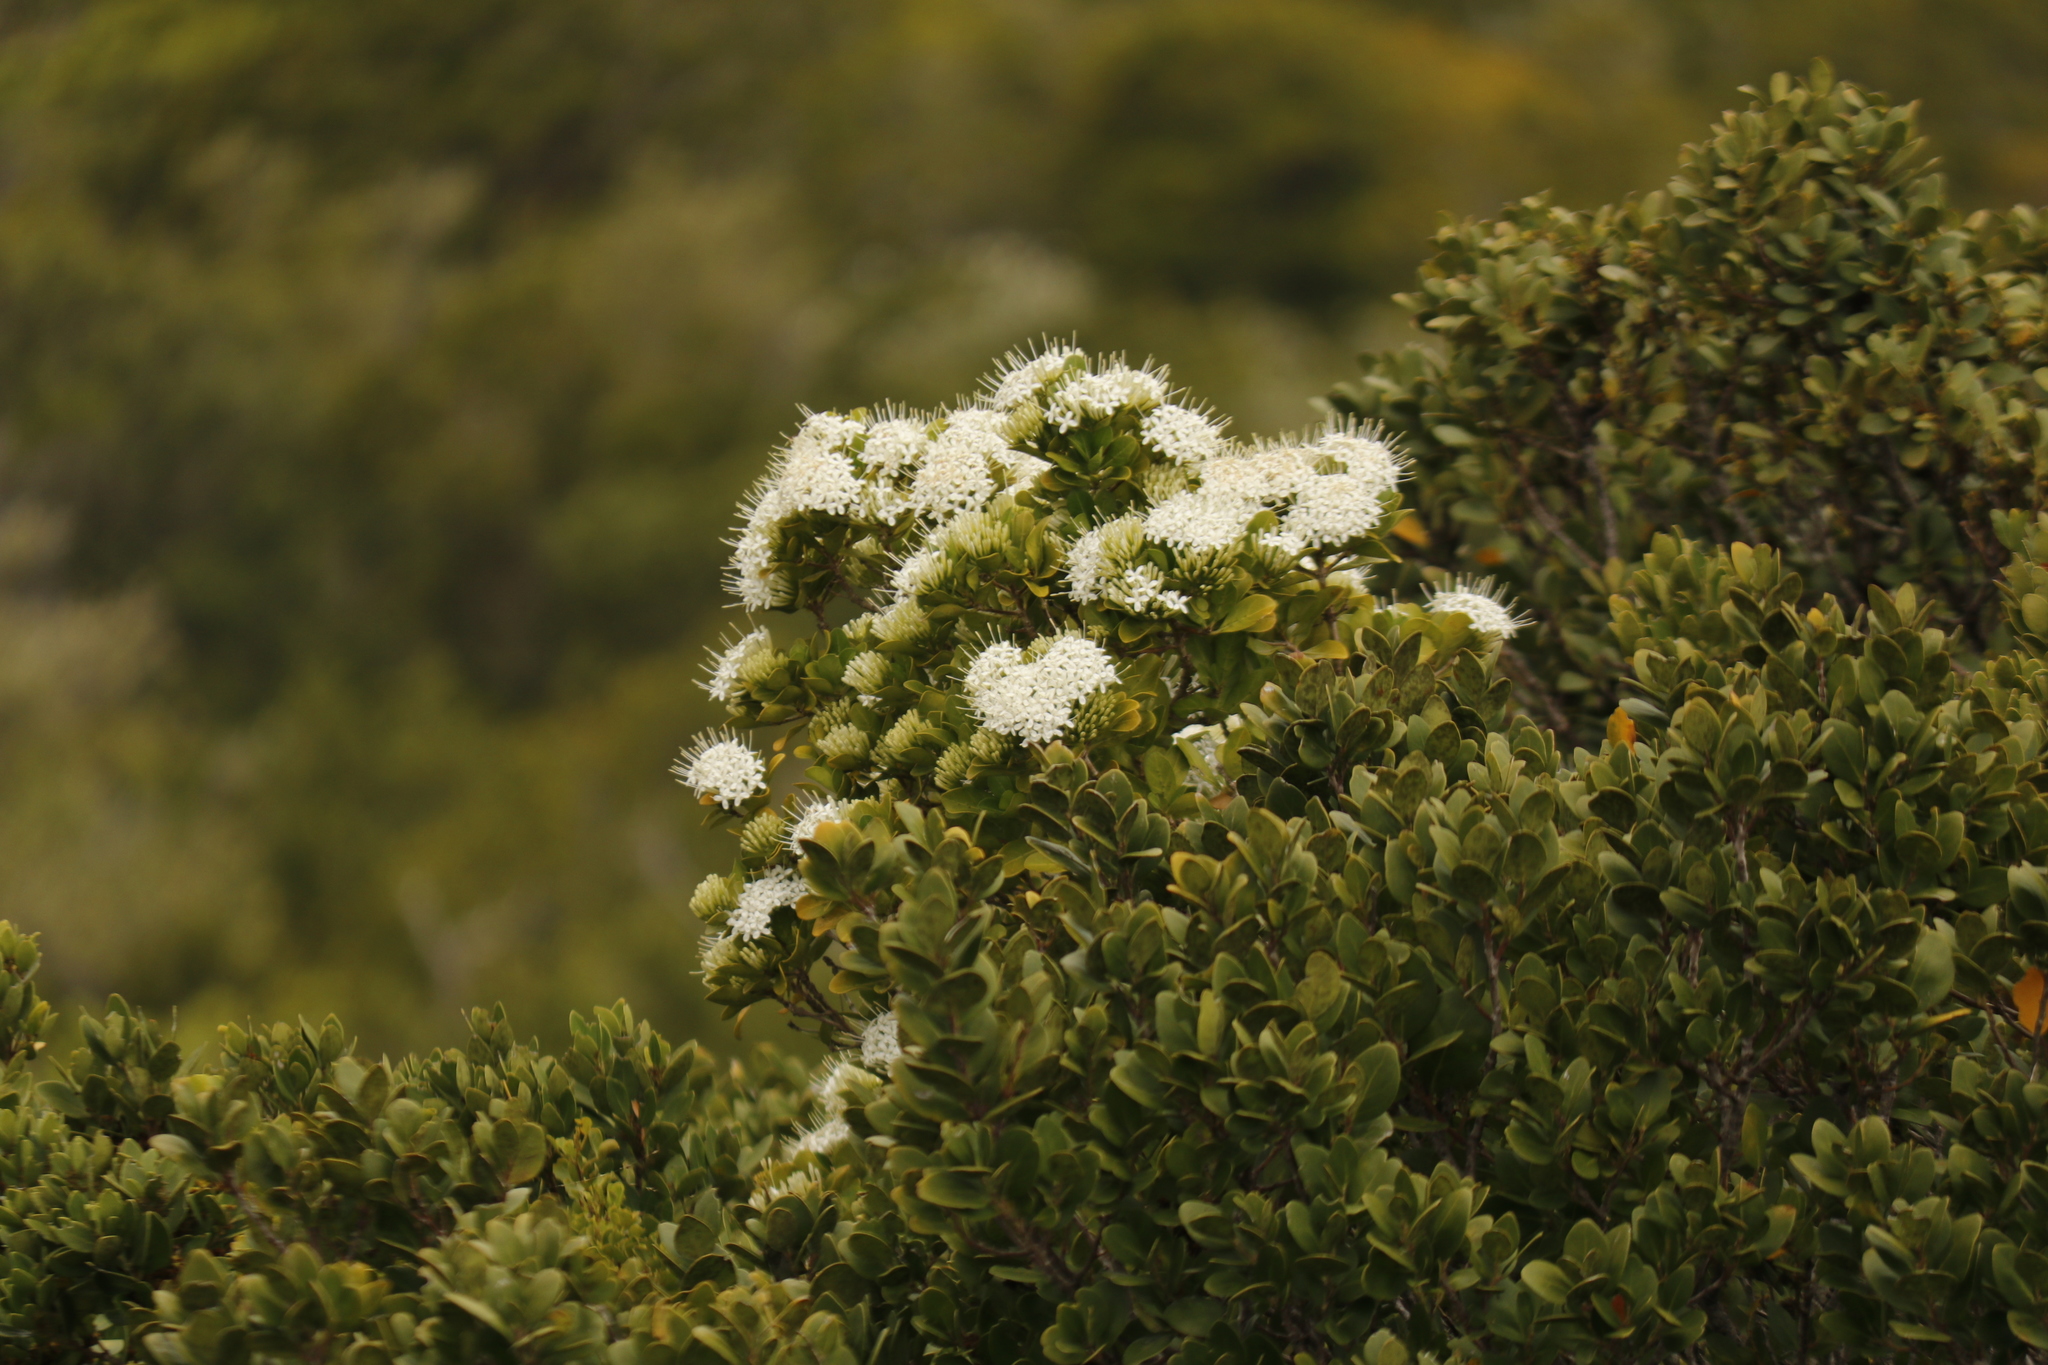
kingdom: Plantae
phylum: Tracheophyta
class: Magnoliopsida
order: Gentianales
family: Rubiaceae
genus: Pavetta
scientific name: Pavetta revoluta
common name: Dune brides-bush
